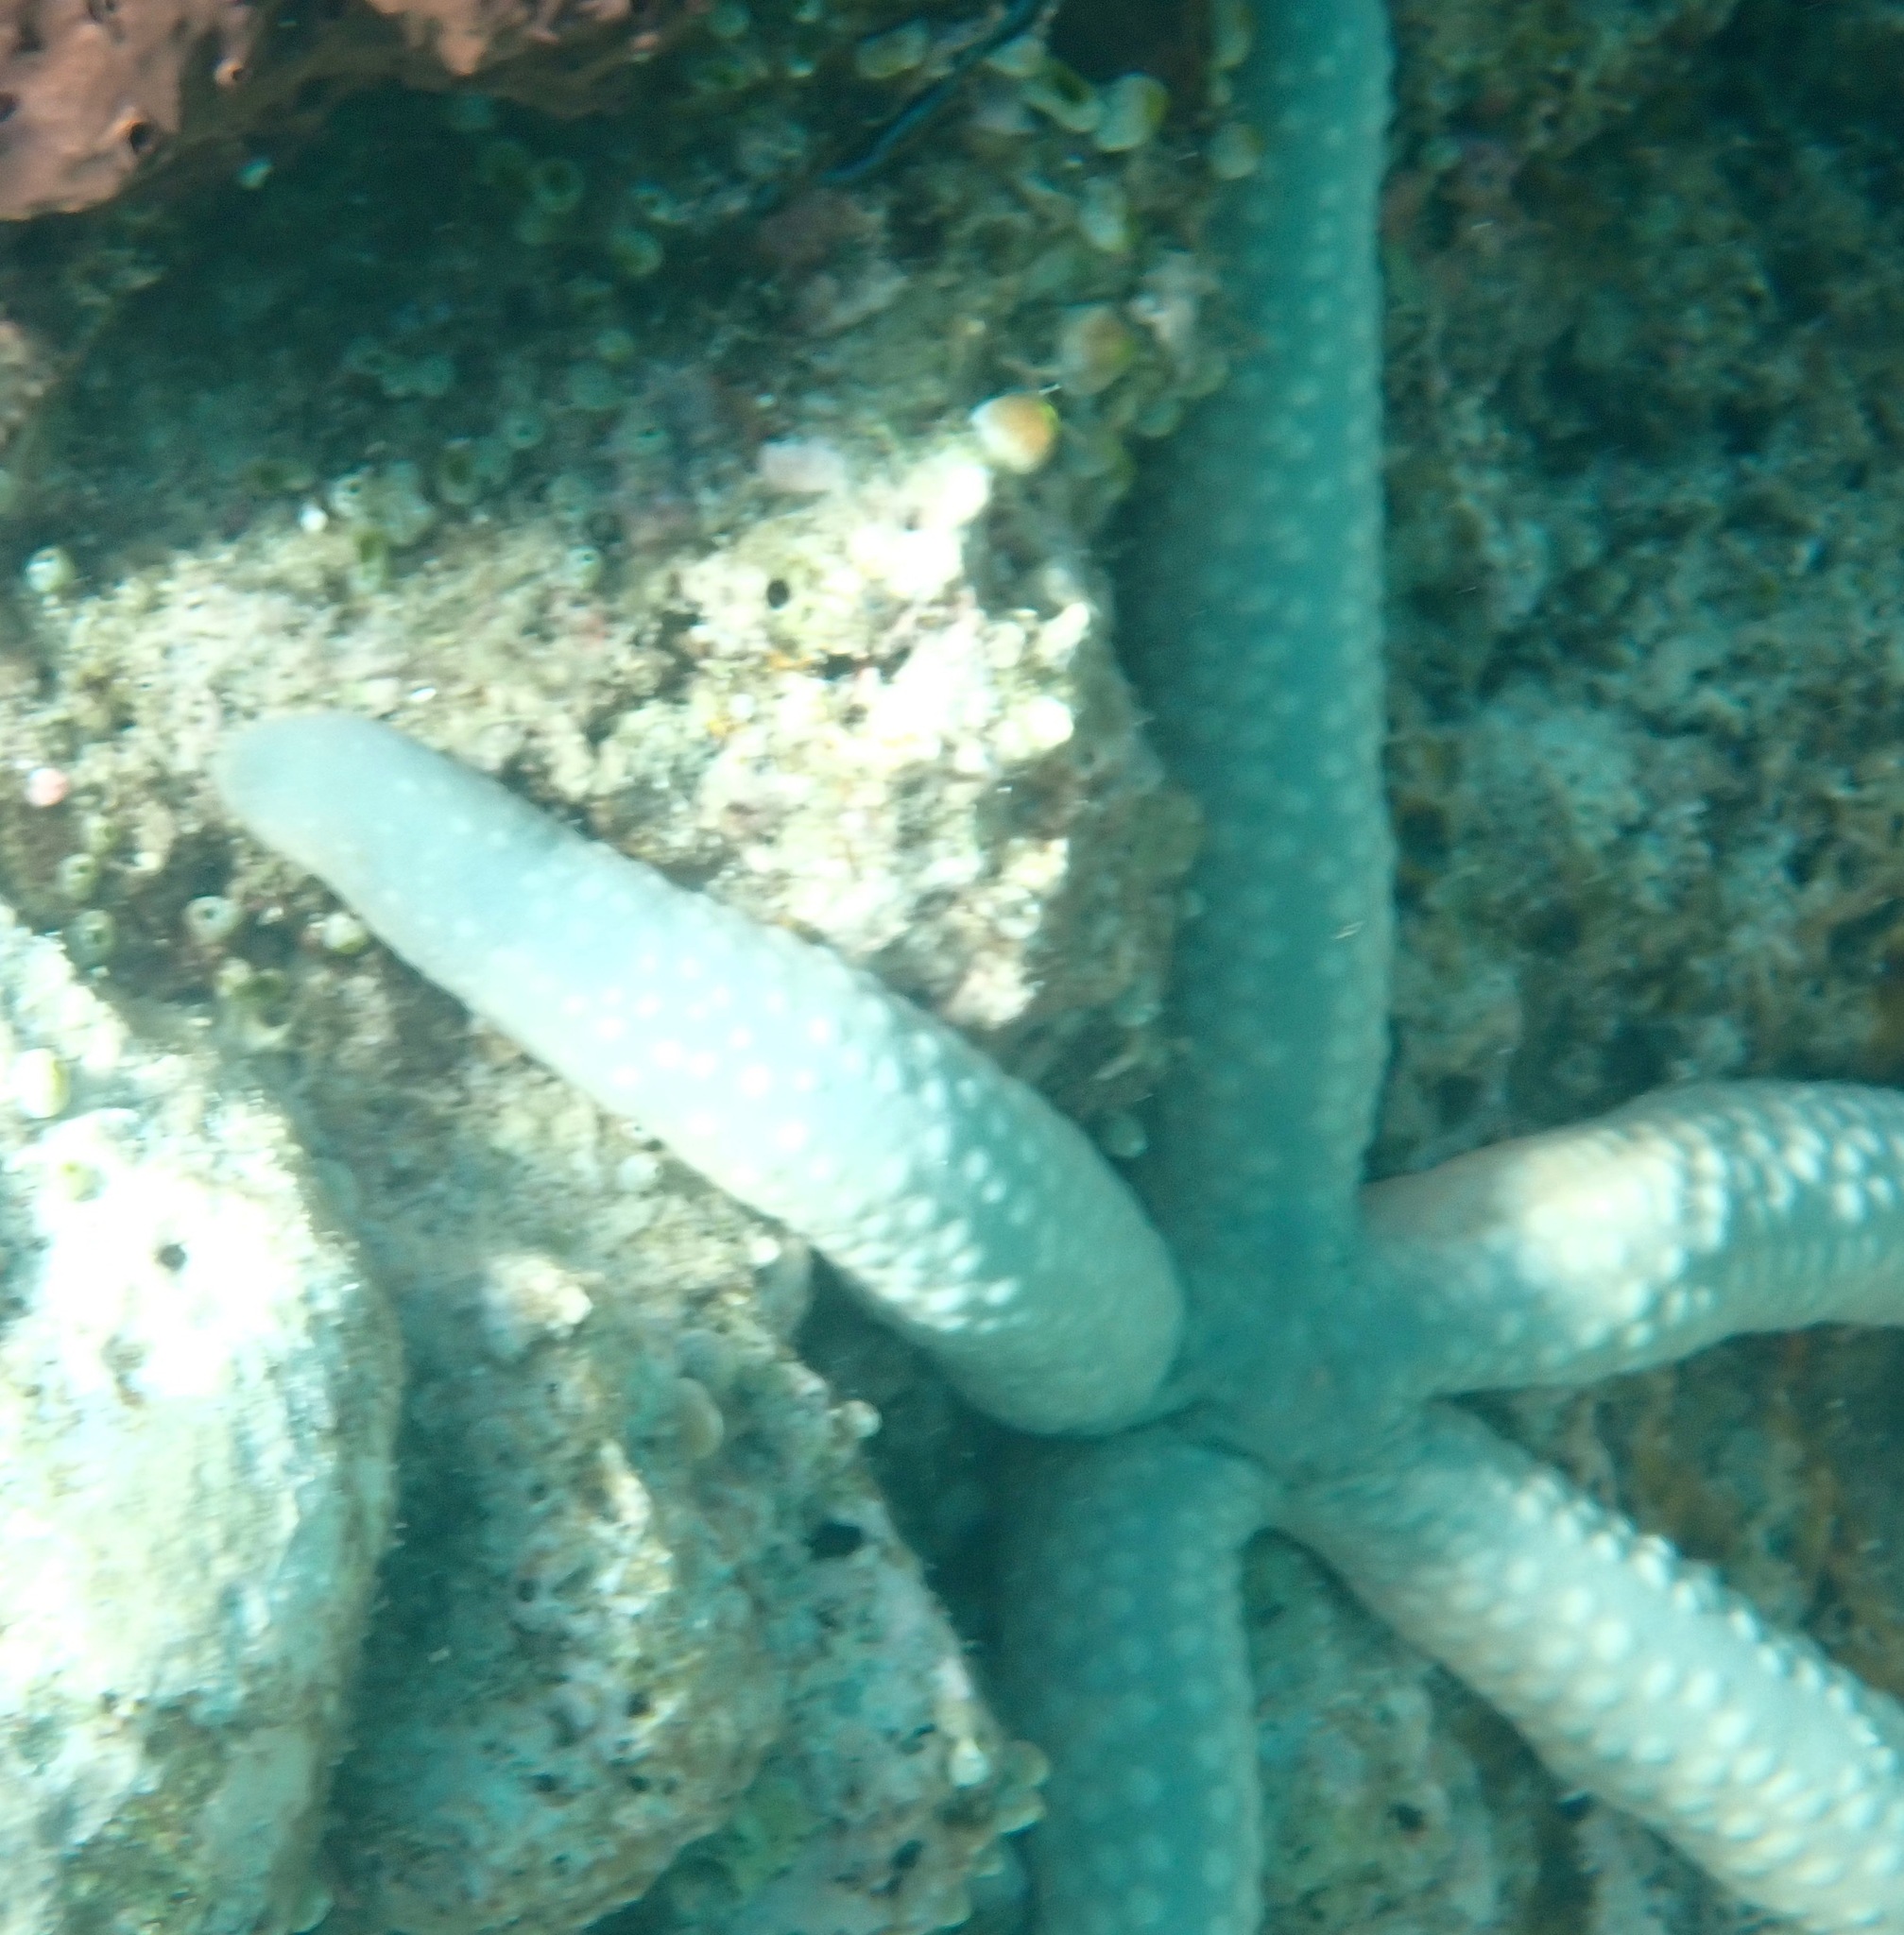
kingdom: Animalia
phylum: Echinodermata
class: Asteroidea
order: Valvatida
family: Ophidiasteridae
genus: Linckia
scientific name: Linckia laevigata
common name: Azure sea star
